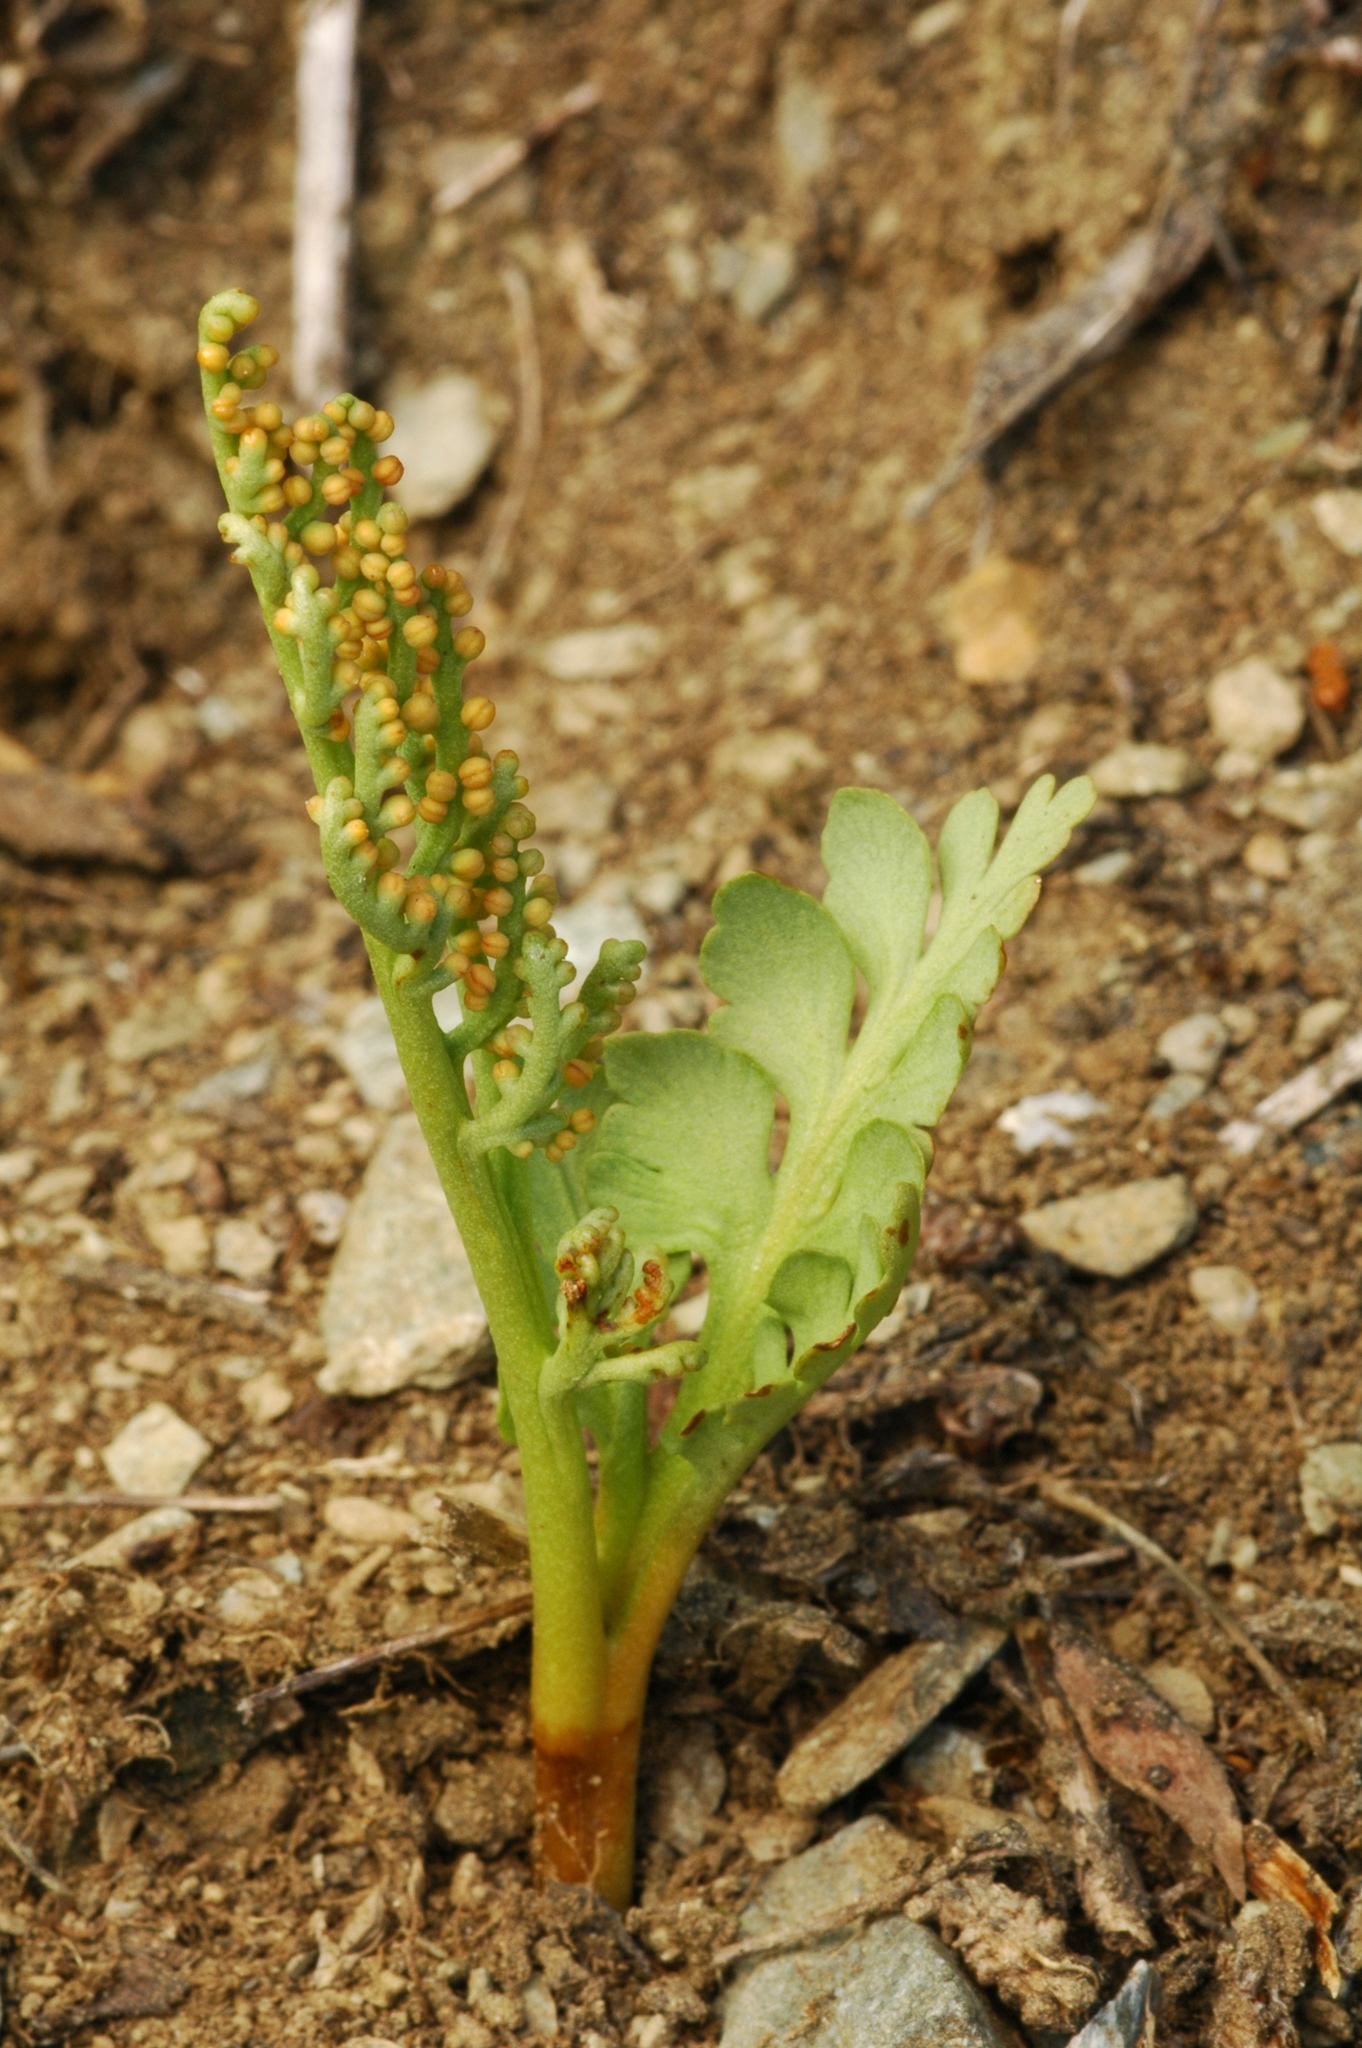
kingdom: Plantae
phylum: Tracheophyta
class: Polypodiopsida
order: Ophioglossales
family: Ophioglossaceae
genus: Botrychium
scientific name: Botrychium hesperium
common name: Western moonwort
